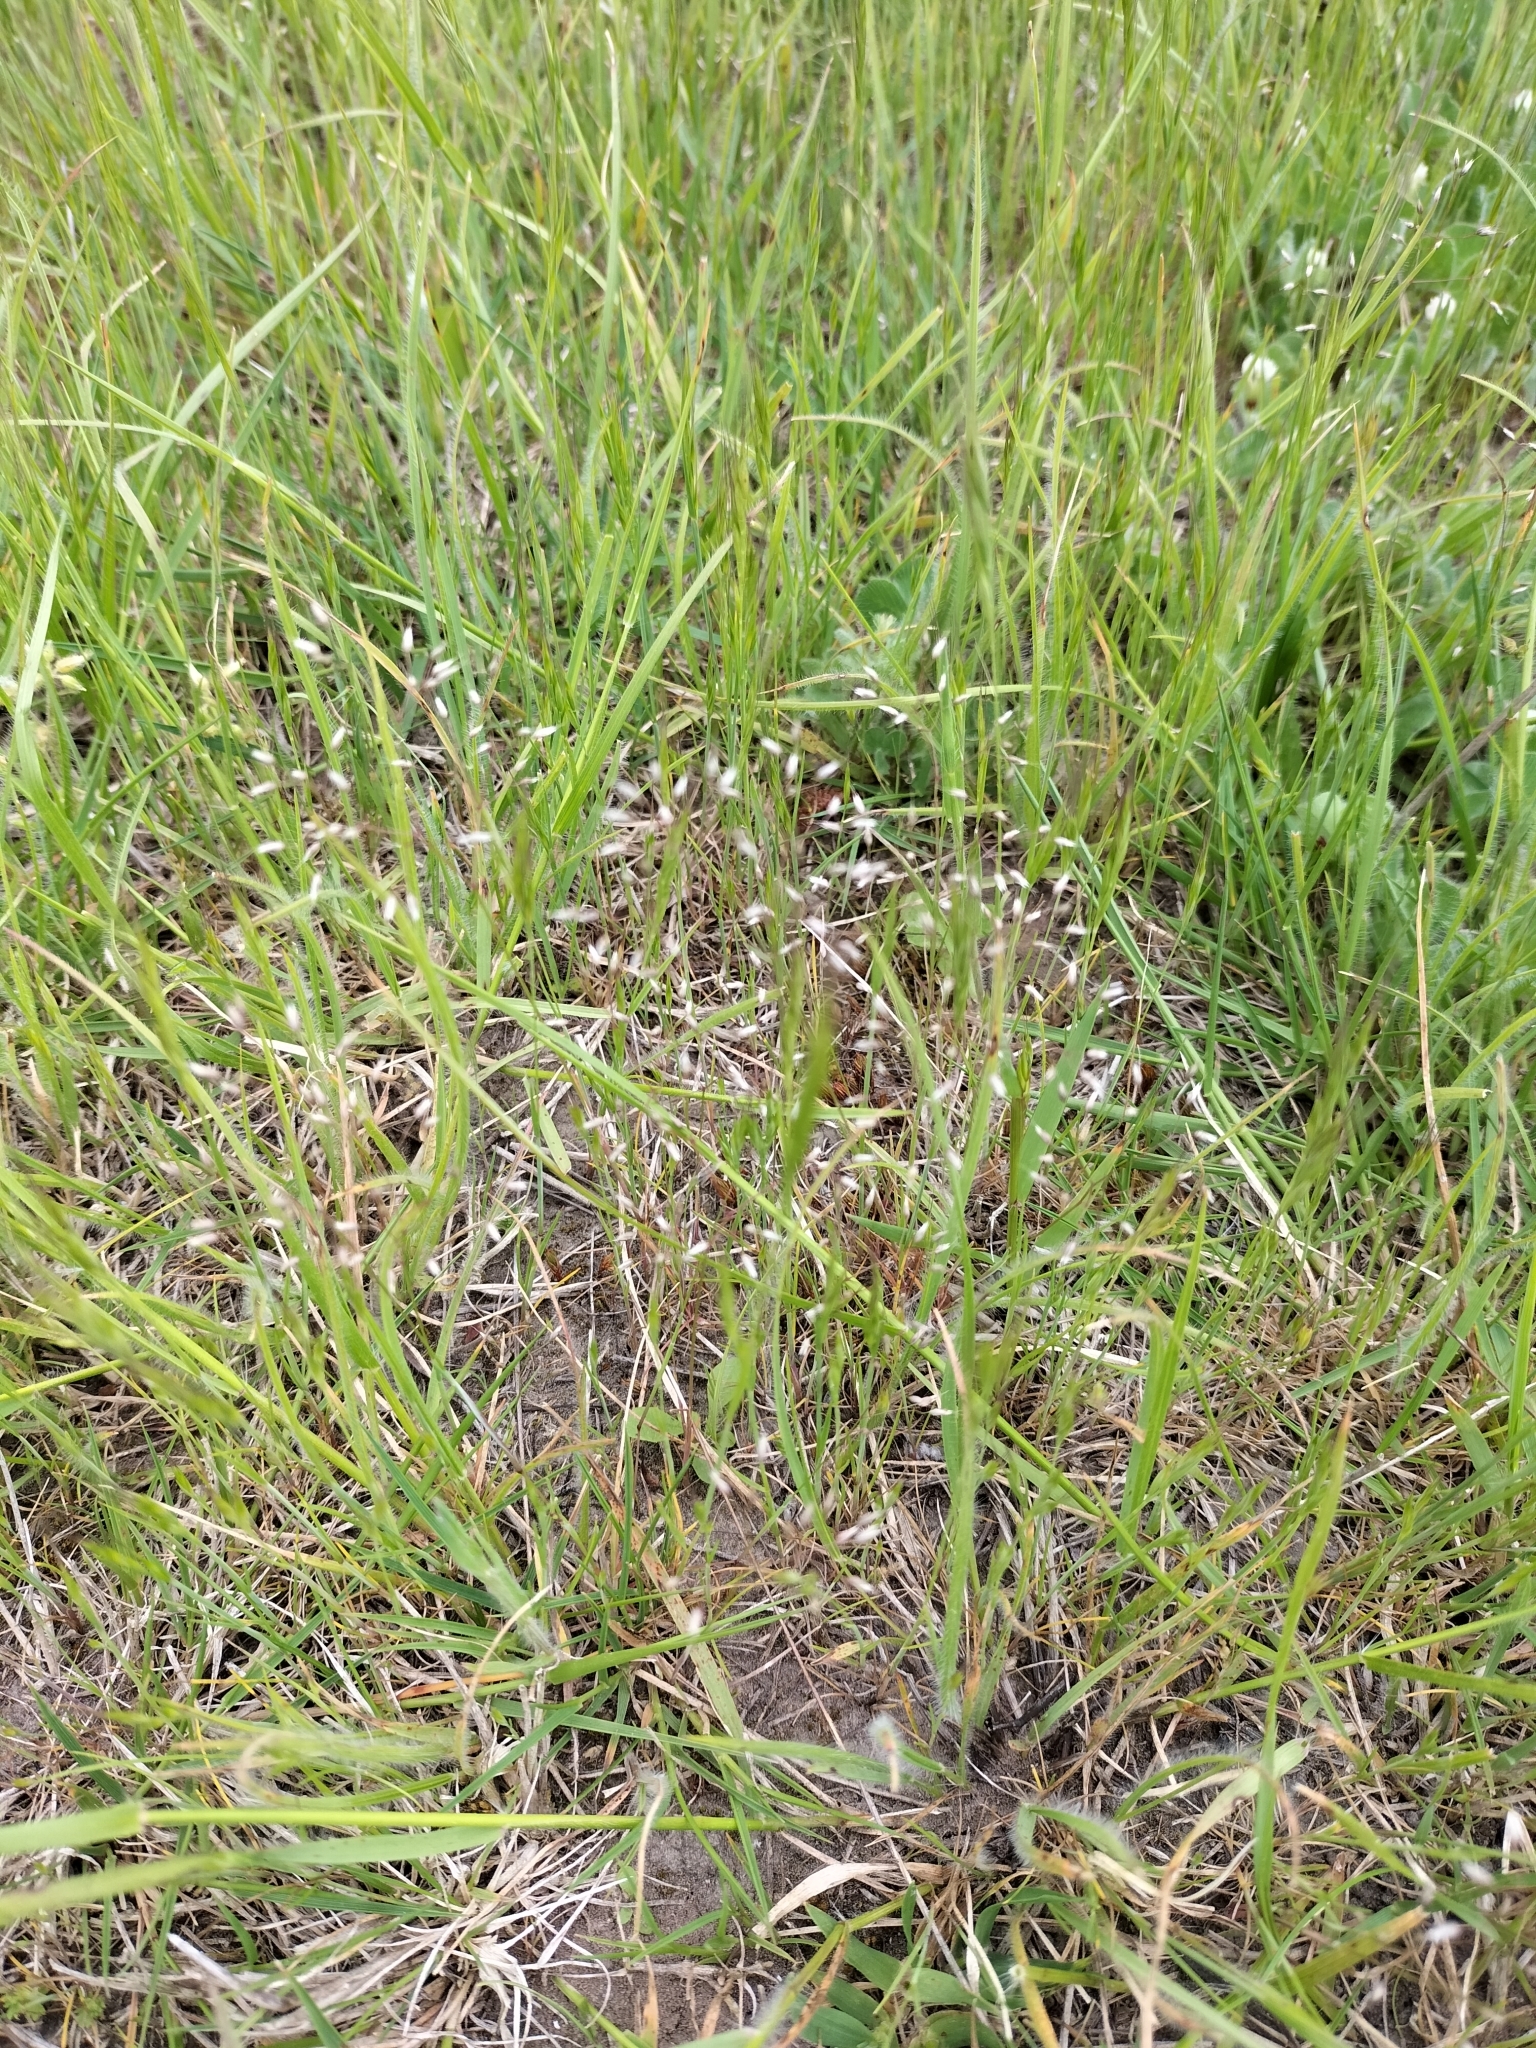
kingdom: Plantae
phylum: Tracheophyta
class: Liliopsida
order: Poales
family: Poaceae
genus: Aira
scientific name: Aira caryophyllea
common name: Silver hairgrass
